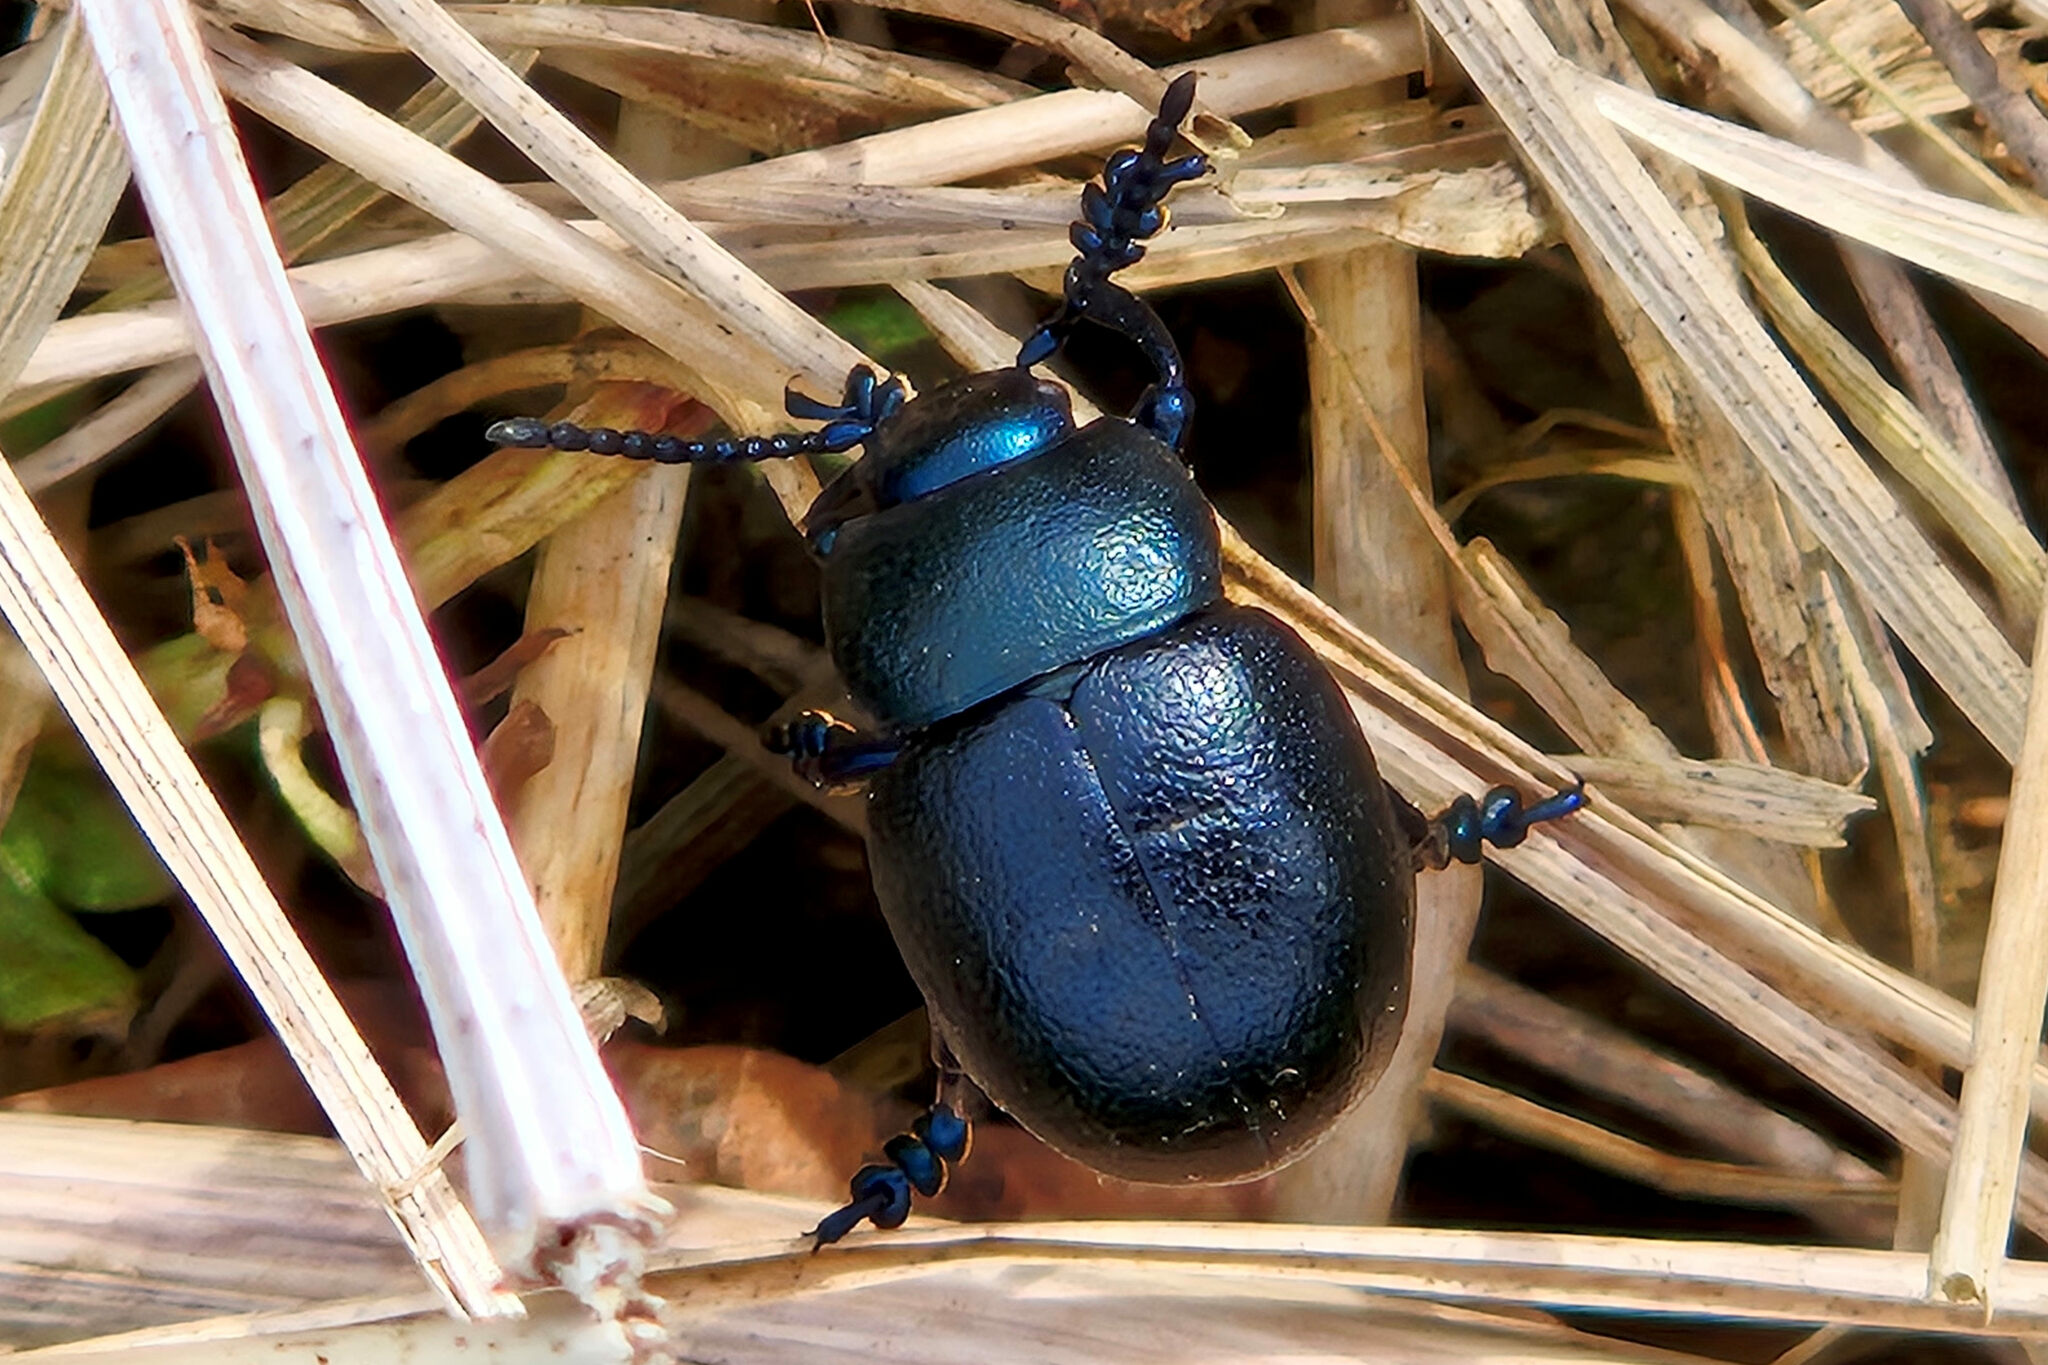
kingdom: Animalia
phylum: Arthropoda
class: Insecta
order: Coleoptera
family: Chrysomelidae
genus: Timarcha
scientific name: Timarcha goettingensis
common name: Small bloody-nosed beetle
